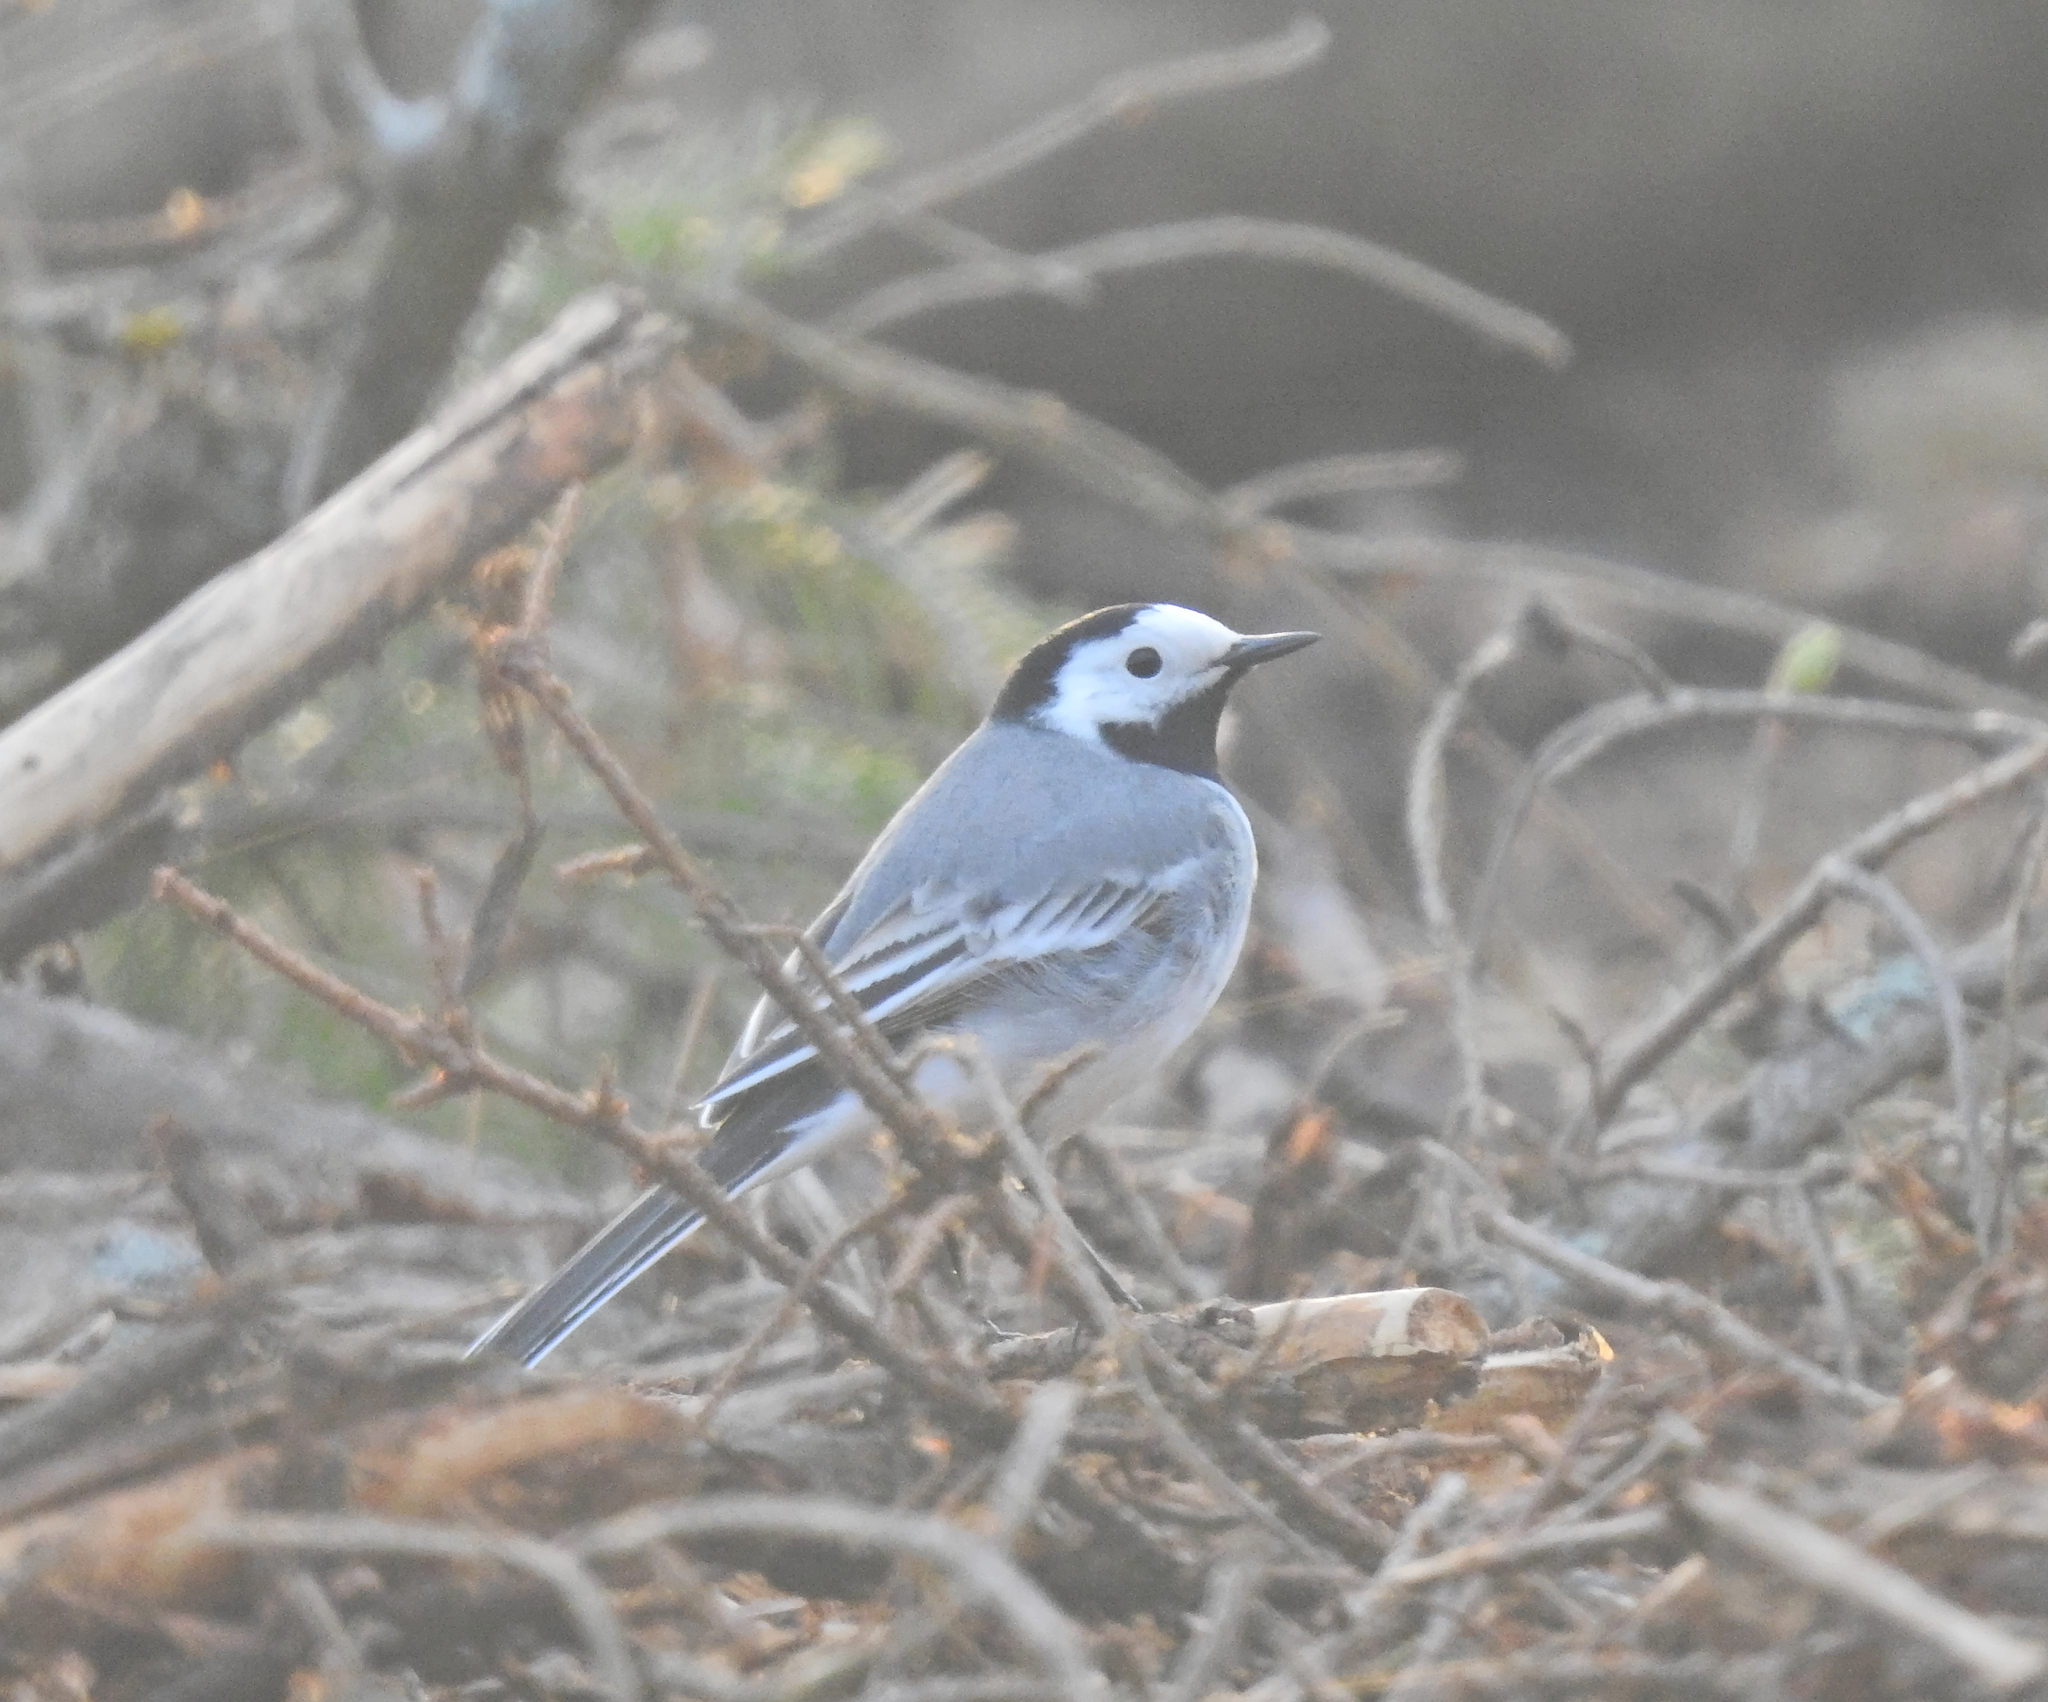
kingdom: Animalia
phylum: Chordata
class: Aves
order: Passeriformes
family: Motacillidae
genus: Motacilla
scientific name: Motacilla alba
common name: White wagtail
